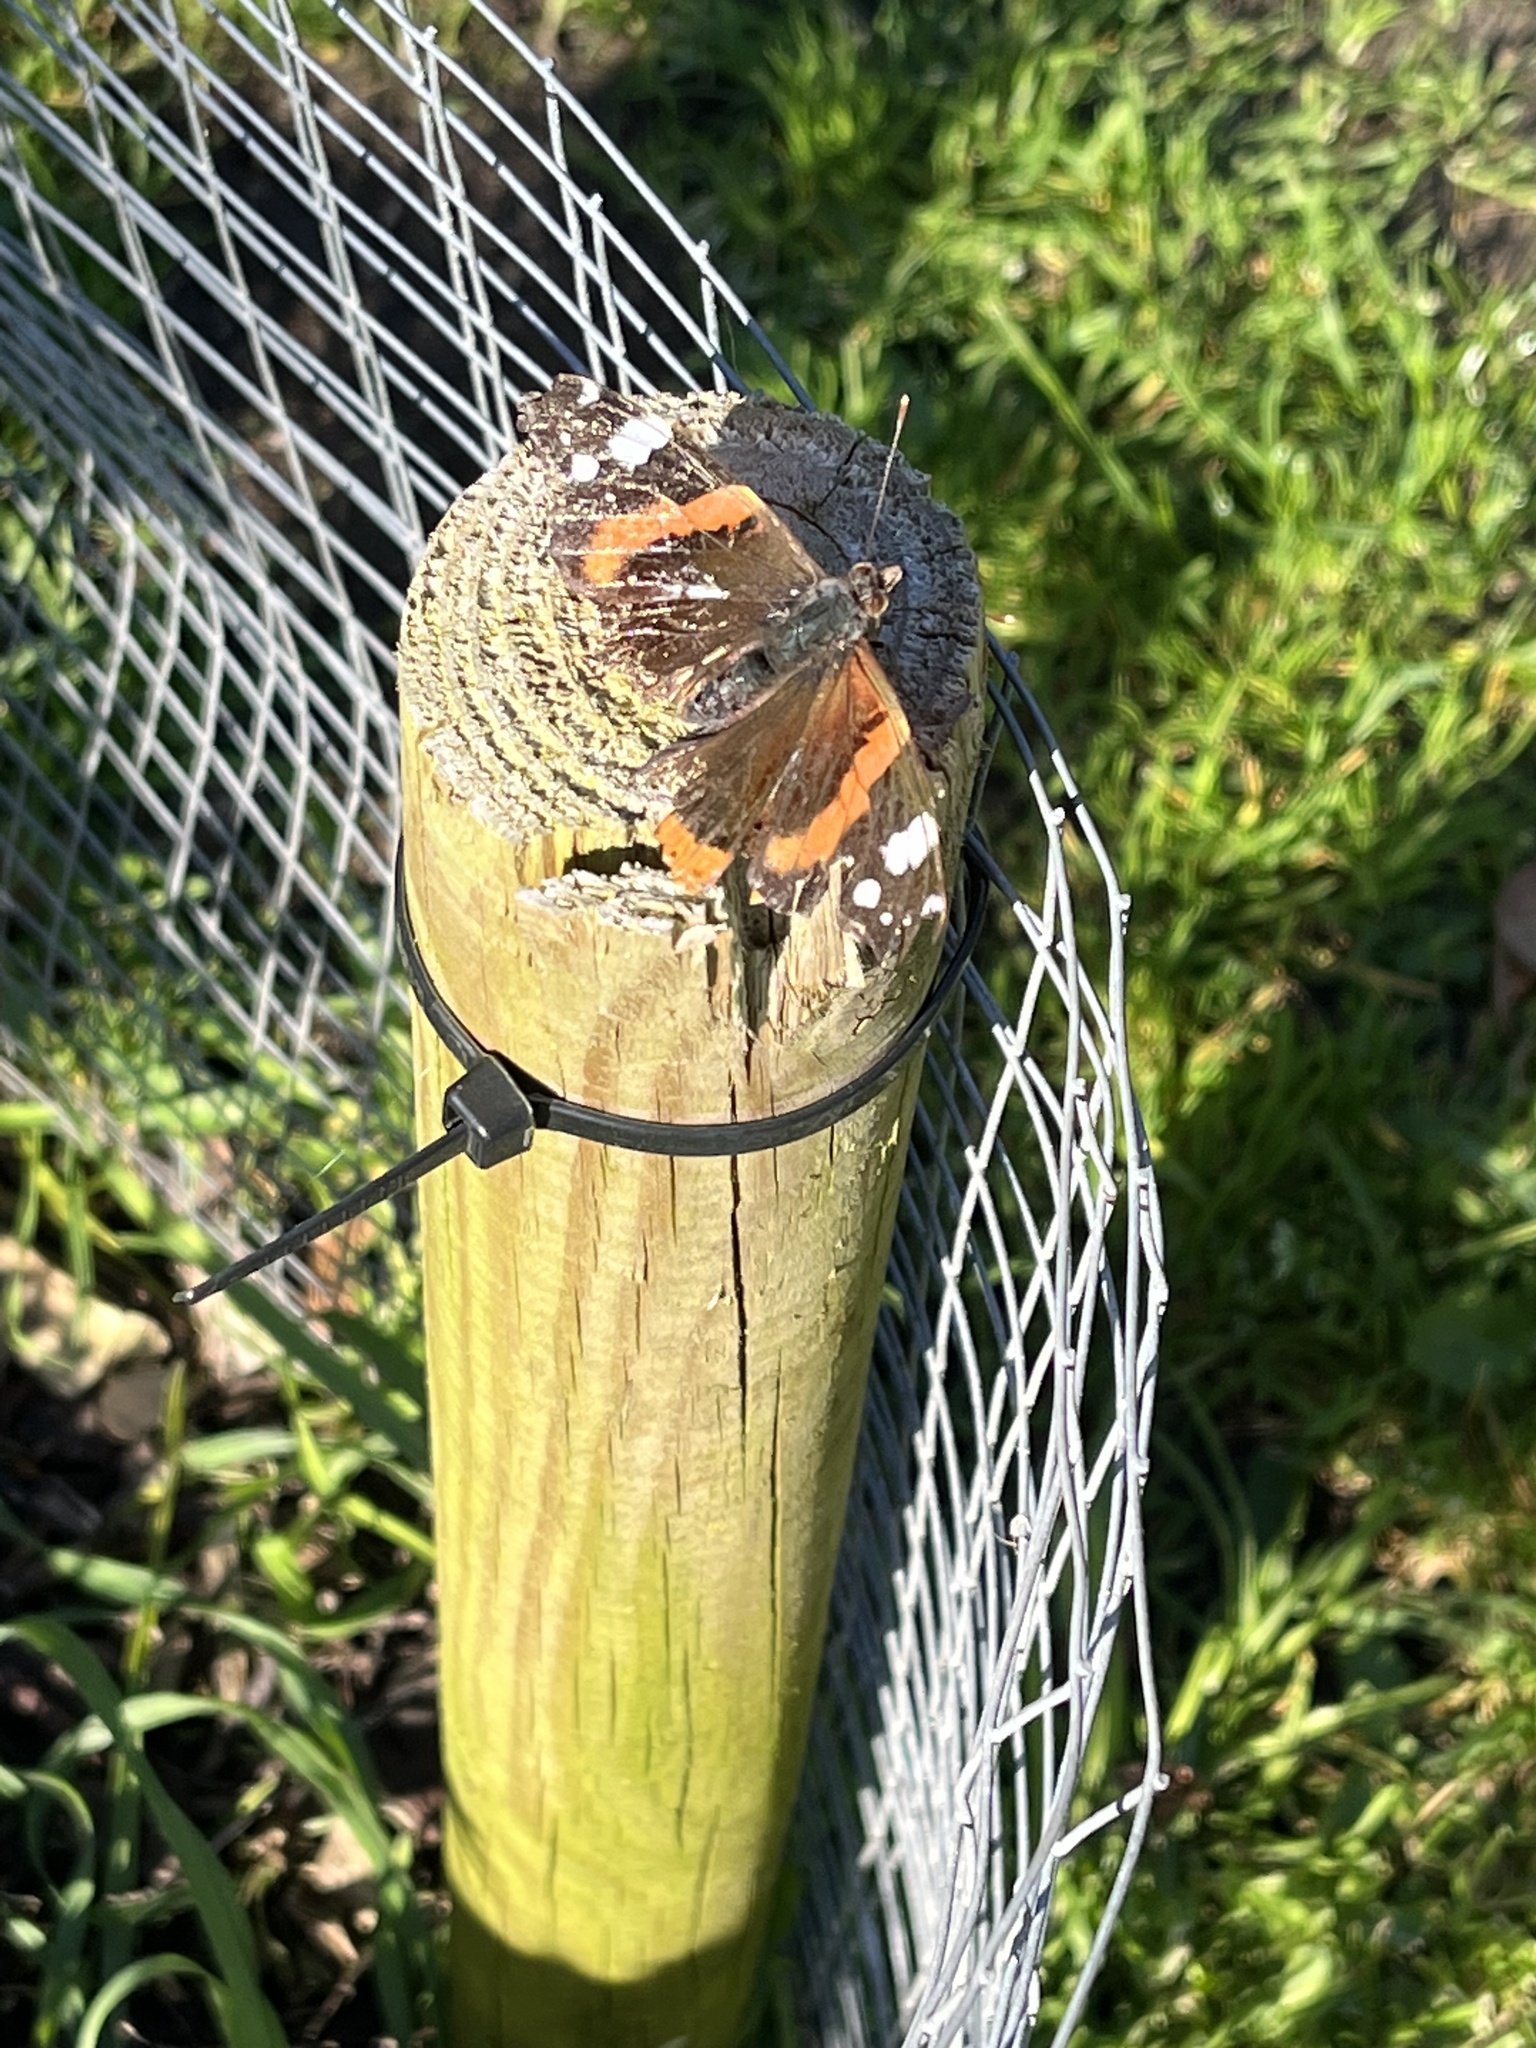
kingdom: Animalia
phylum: Arthropoda
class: Insecta
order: Lepidoptera
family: Nymphalidae
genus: Vanessa
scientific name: Vanessa atalanta
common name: Red admiral
